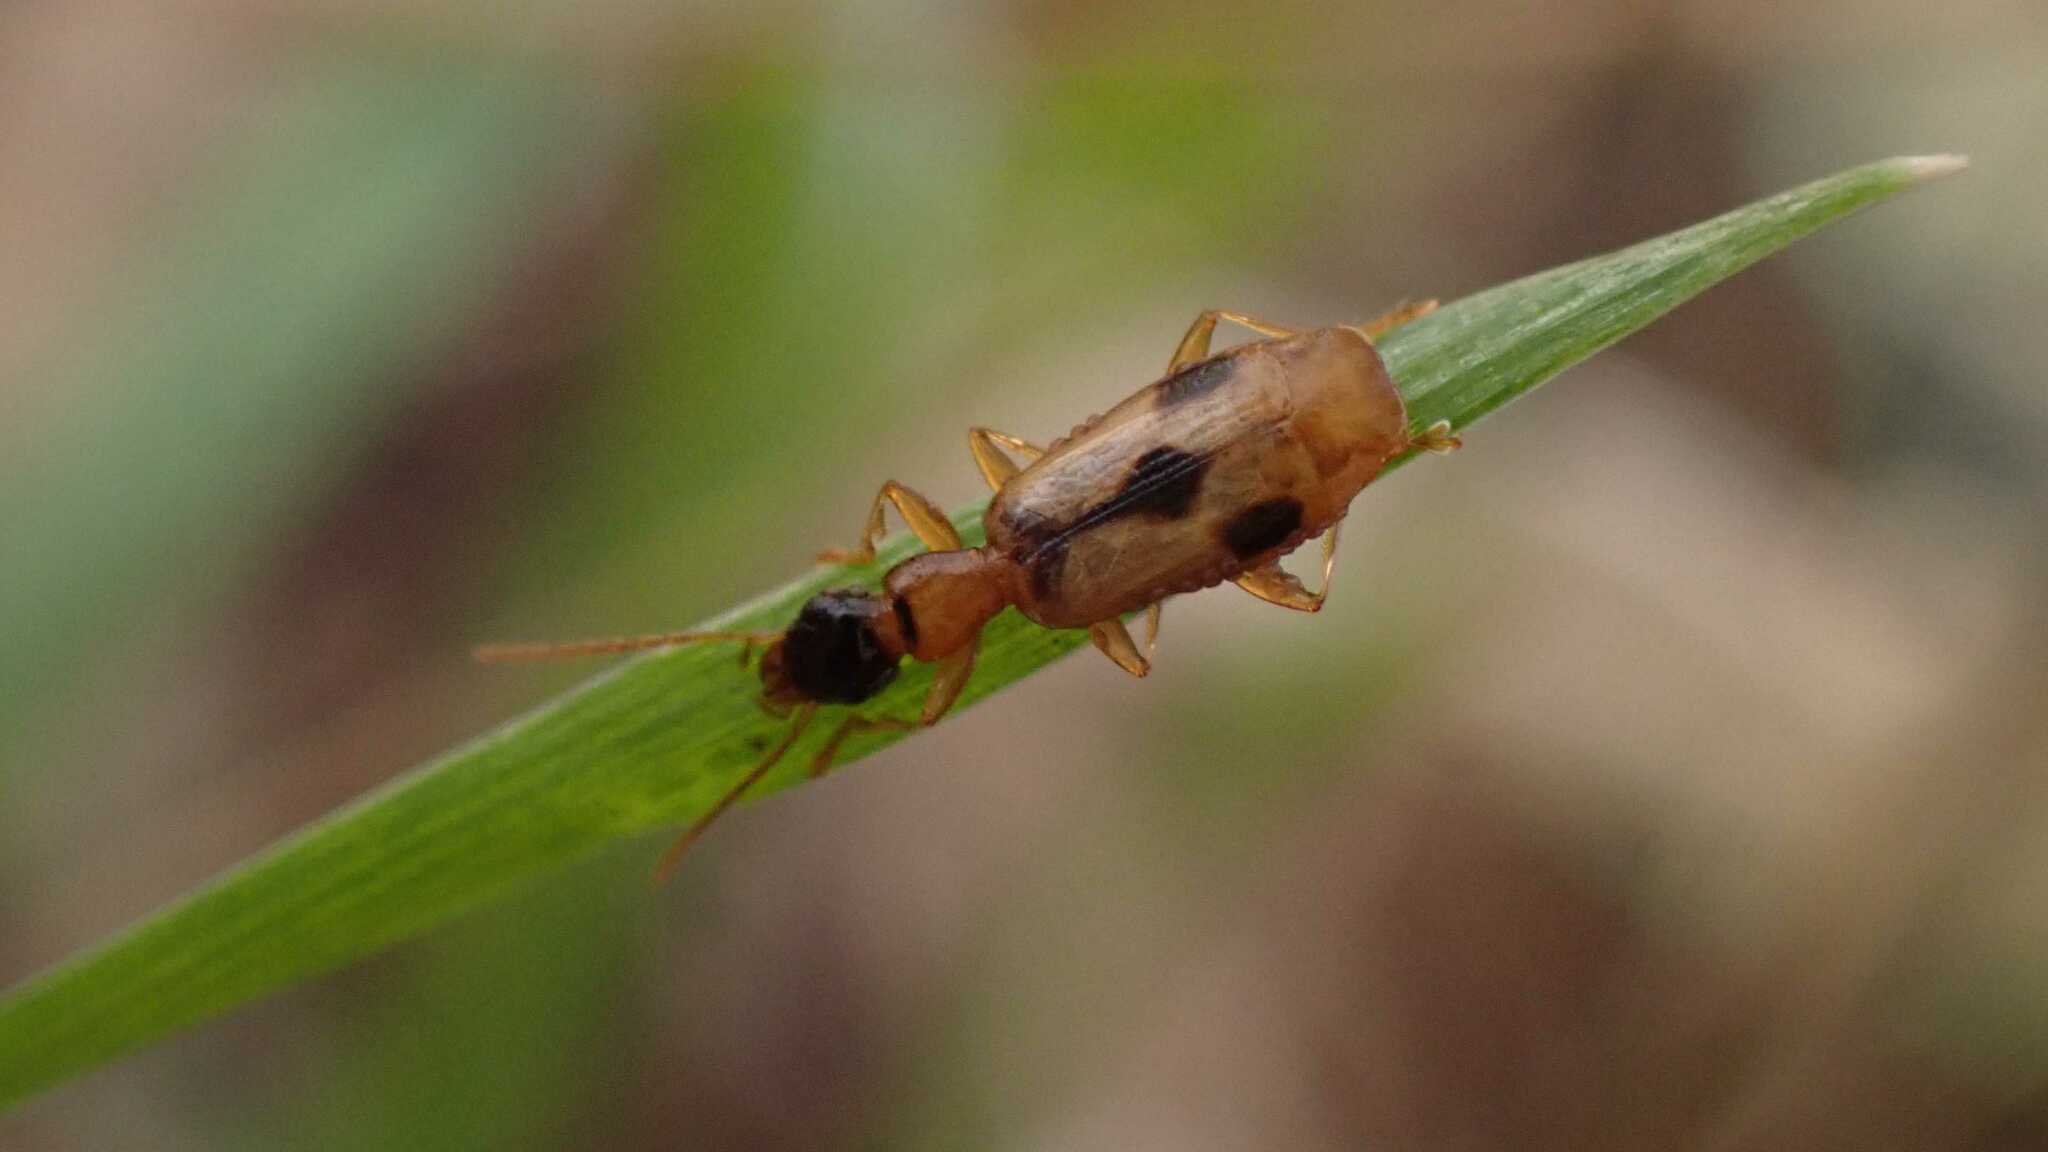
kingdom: Animalia
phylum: Arthropoda
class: Insecta
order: Coleoptera
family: Carabidae
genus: Demetrias
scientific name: Demetrias imperialis
